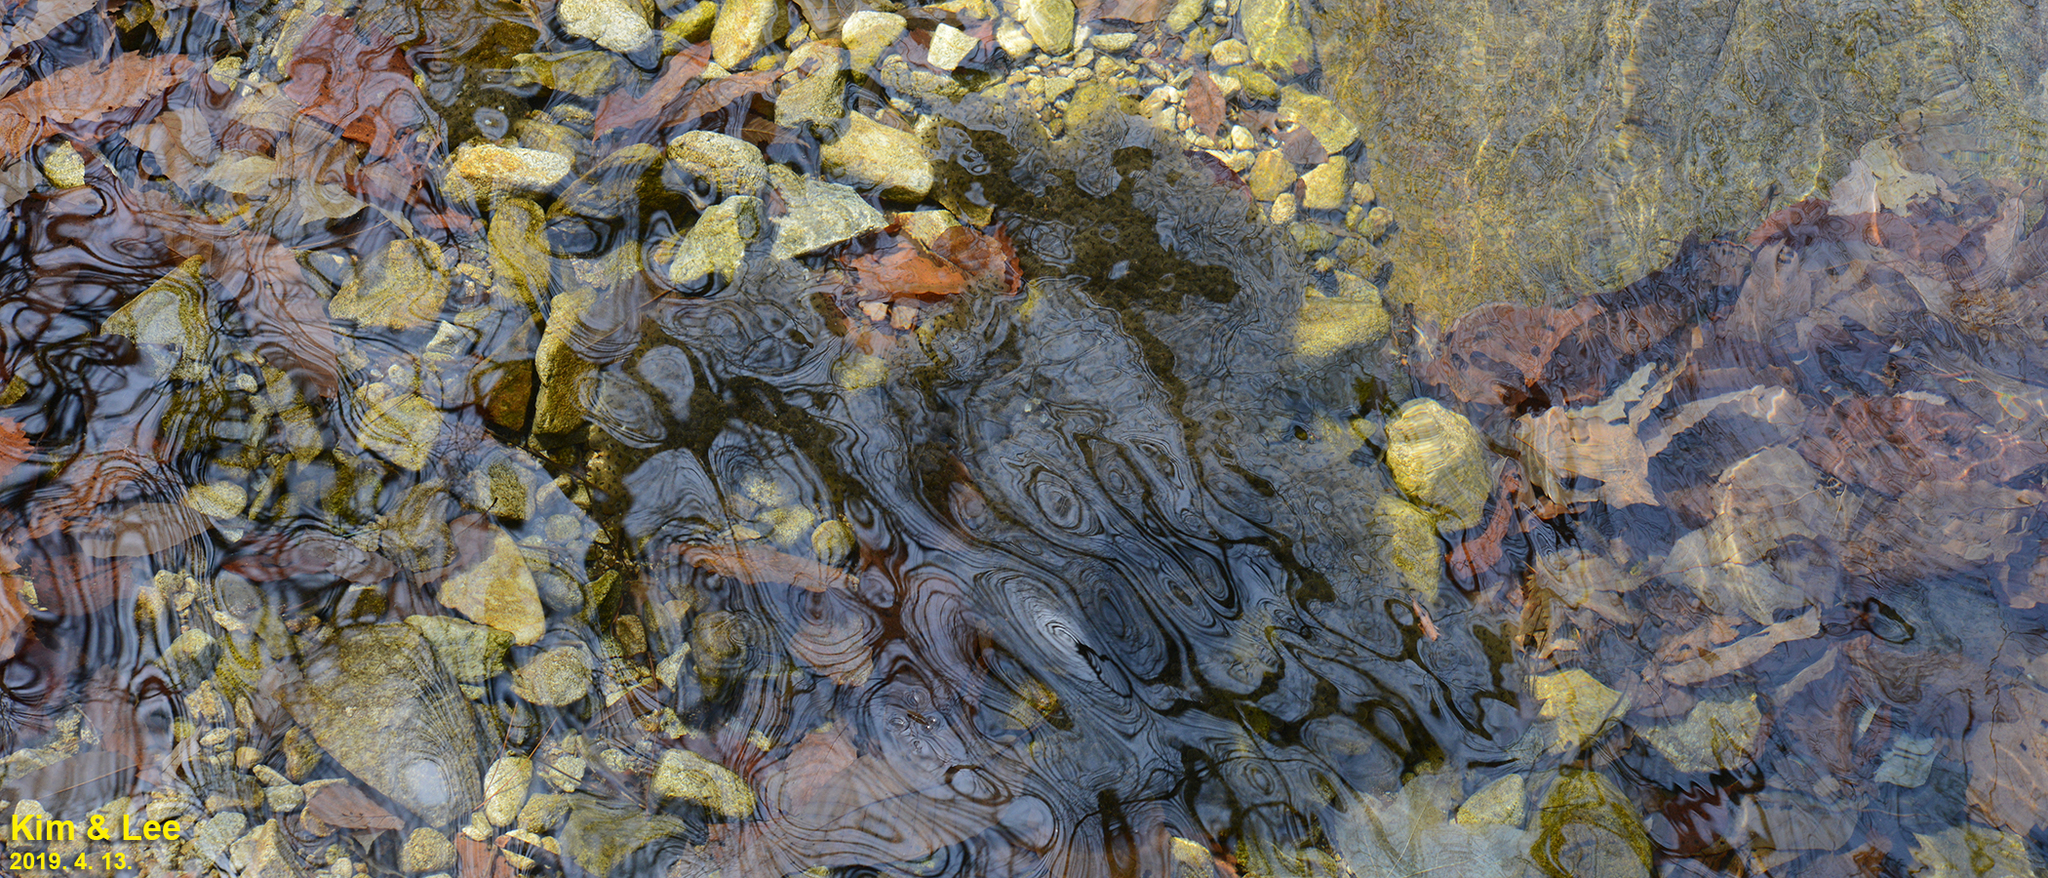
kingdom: Animalia
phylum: Chordata
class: Amphibia
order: Anura
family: Ranidae
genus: Rana
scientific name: Rana huanrenensis
